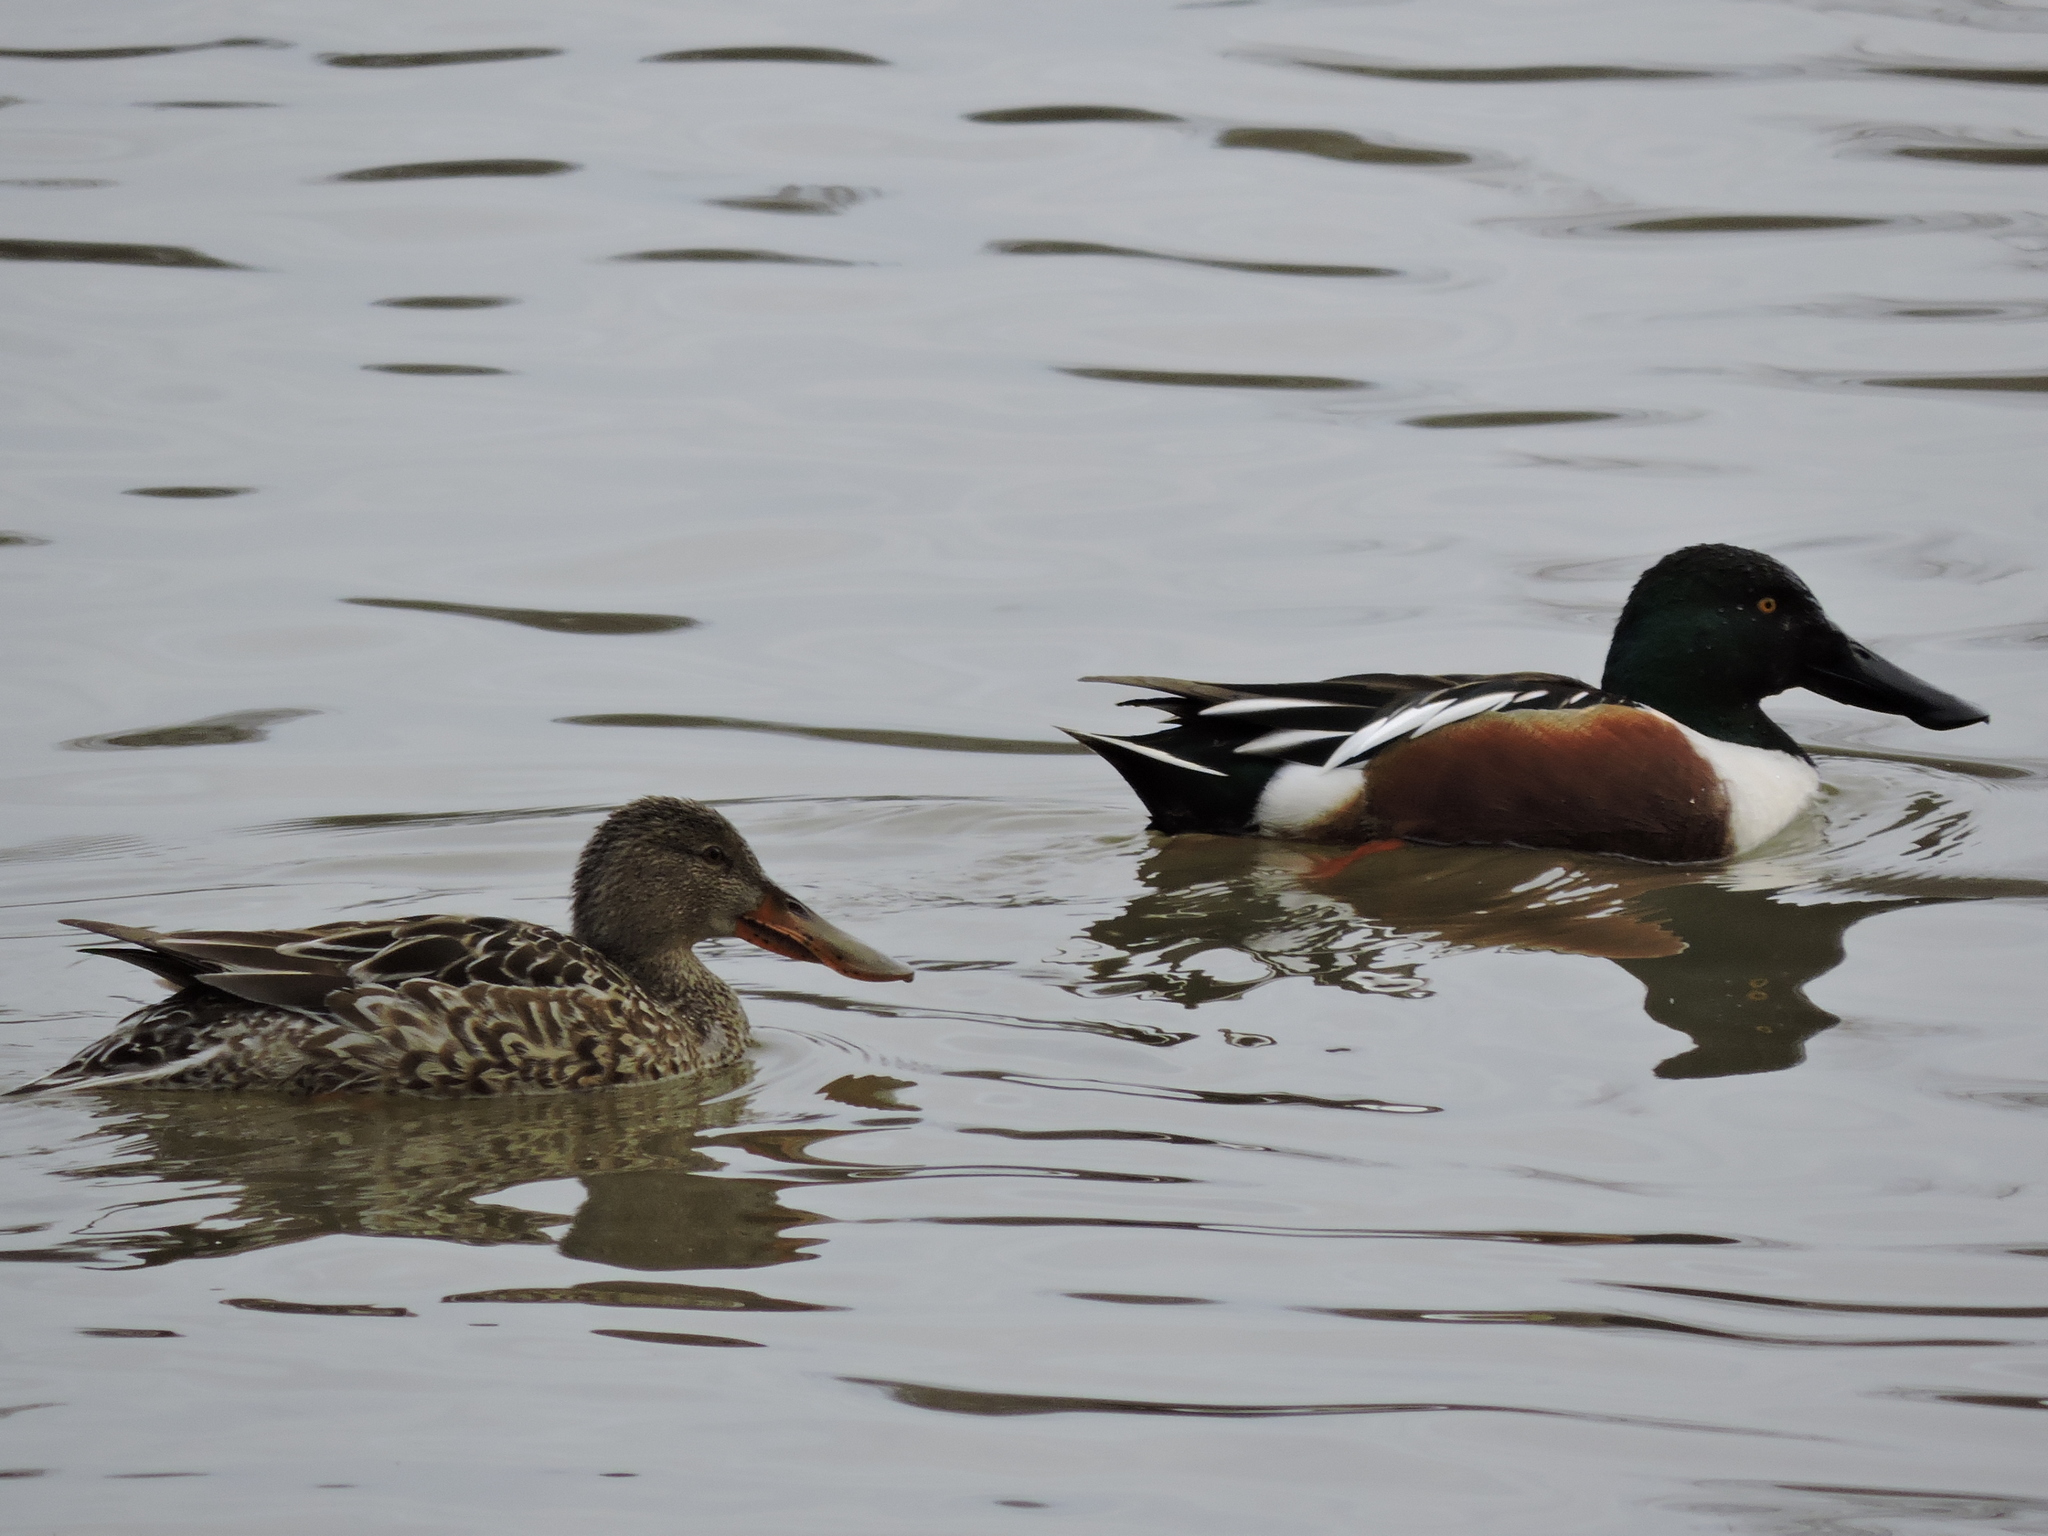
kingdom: Animalia
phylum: Chordata
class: Aves
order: Anseriformes
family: Anatidae
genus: Spatula
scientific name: Spatula clypeata
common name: Northern shoveler
